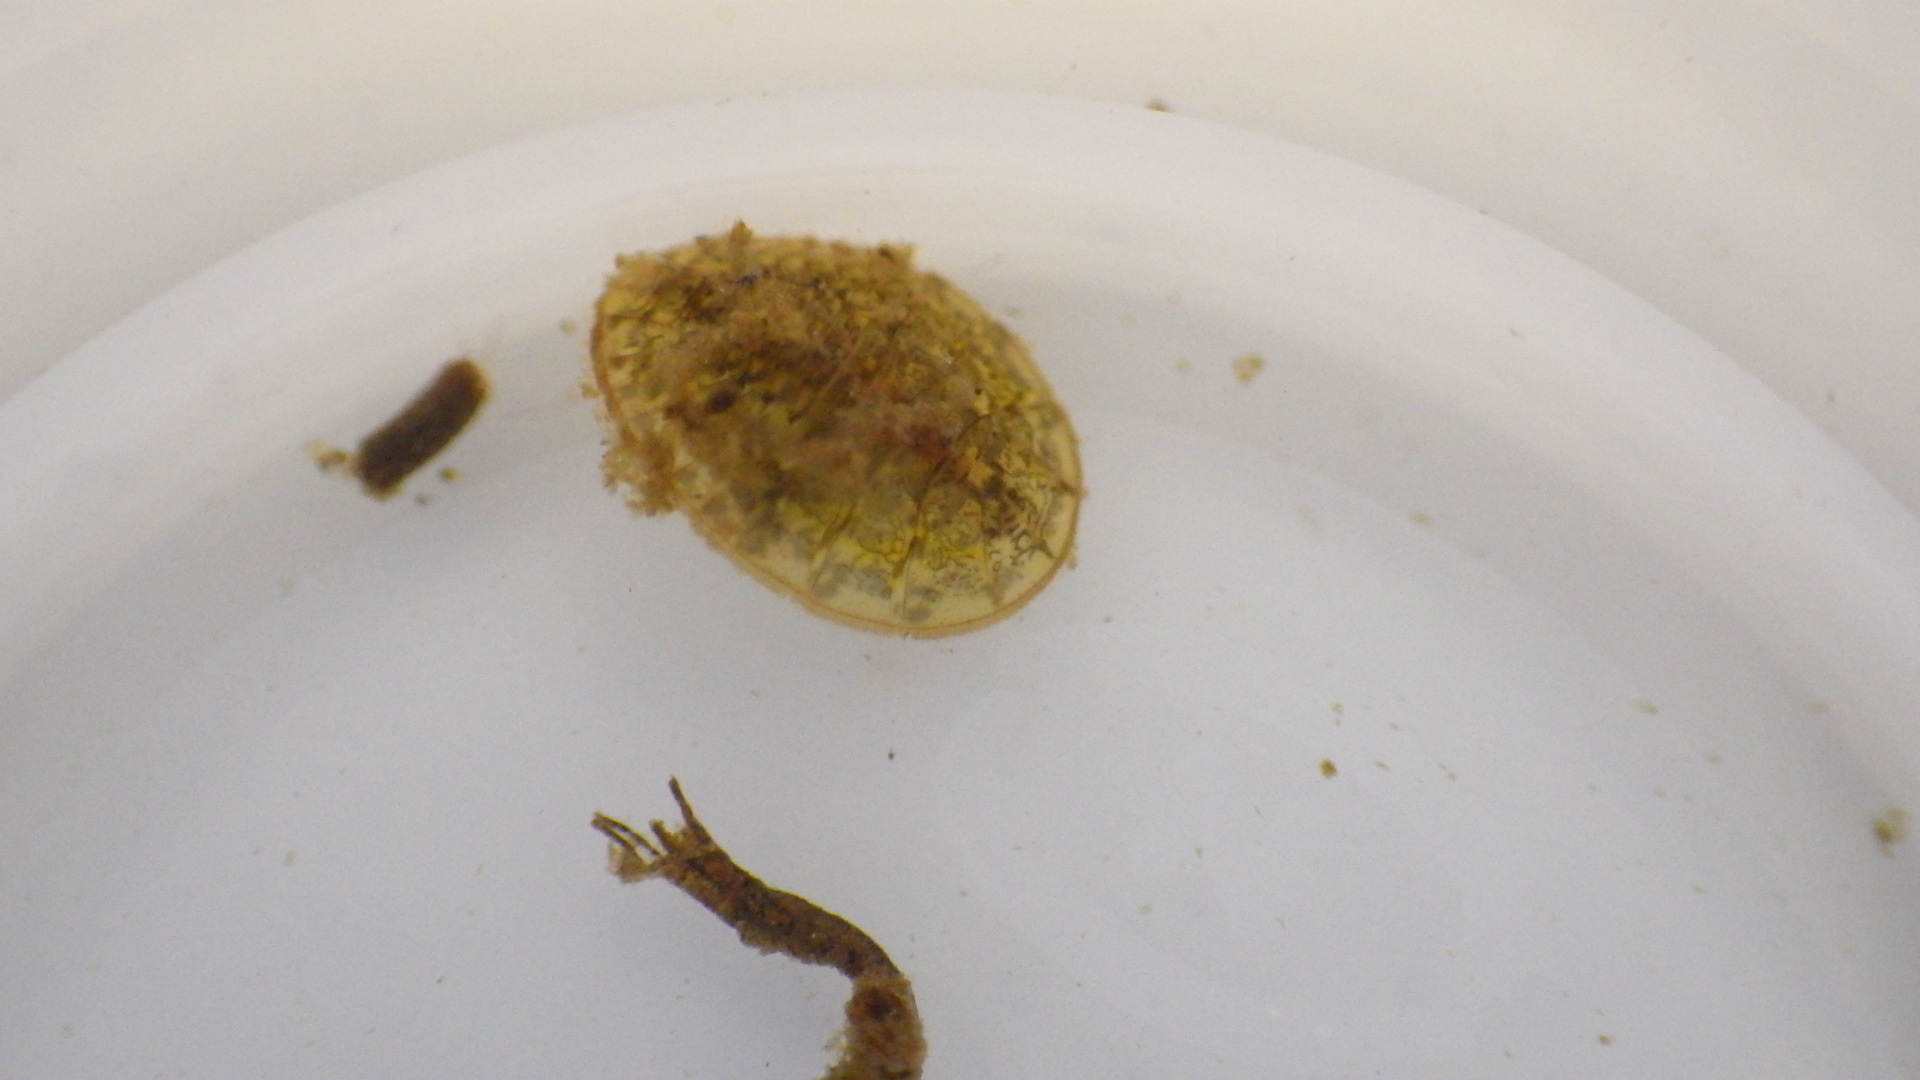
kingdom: Animalia
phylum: Arthropoda
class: Insecta
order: Coleoptera
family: Psephenidae
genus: Psephenus
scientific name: Psephenus herricki
